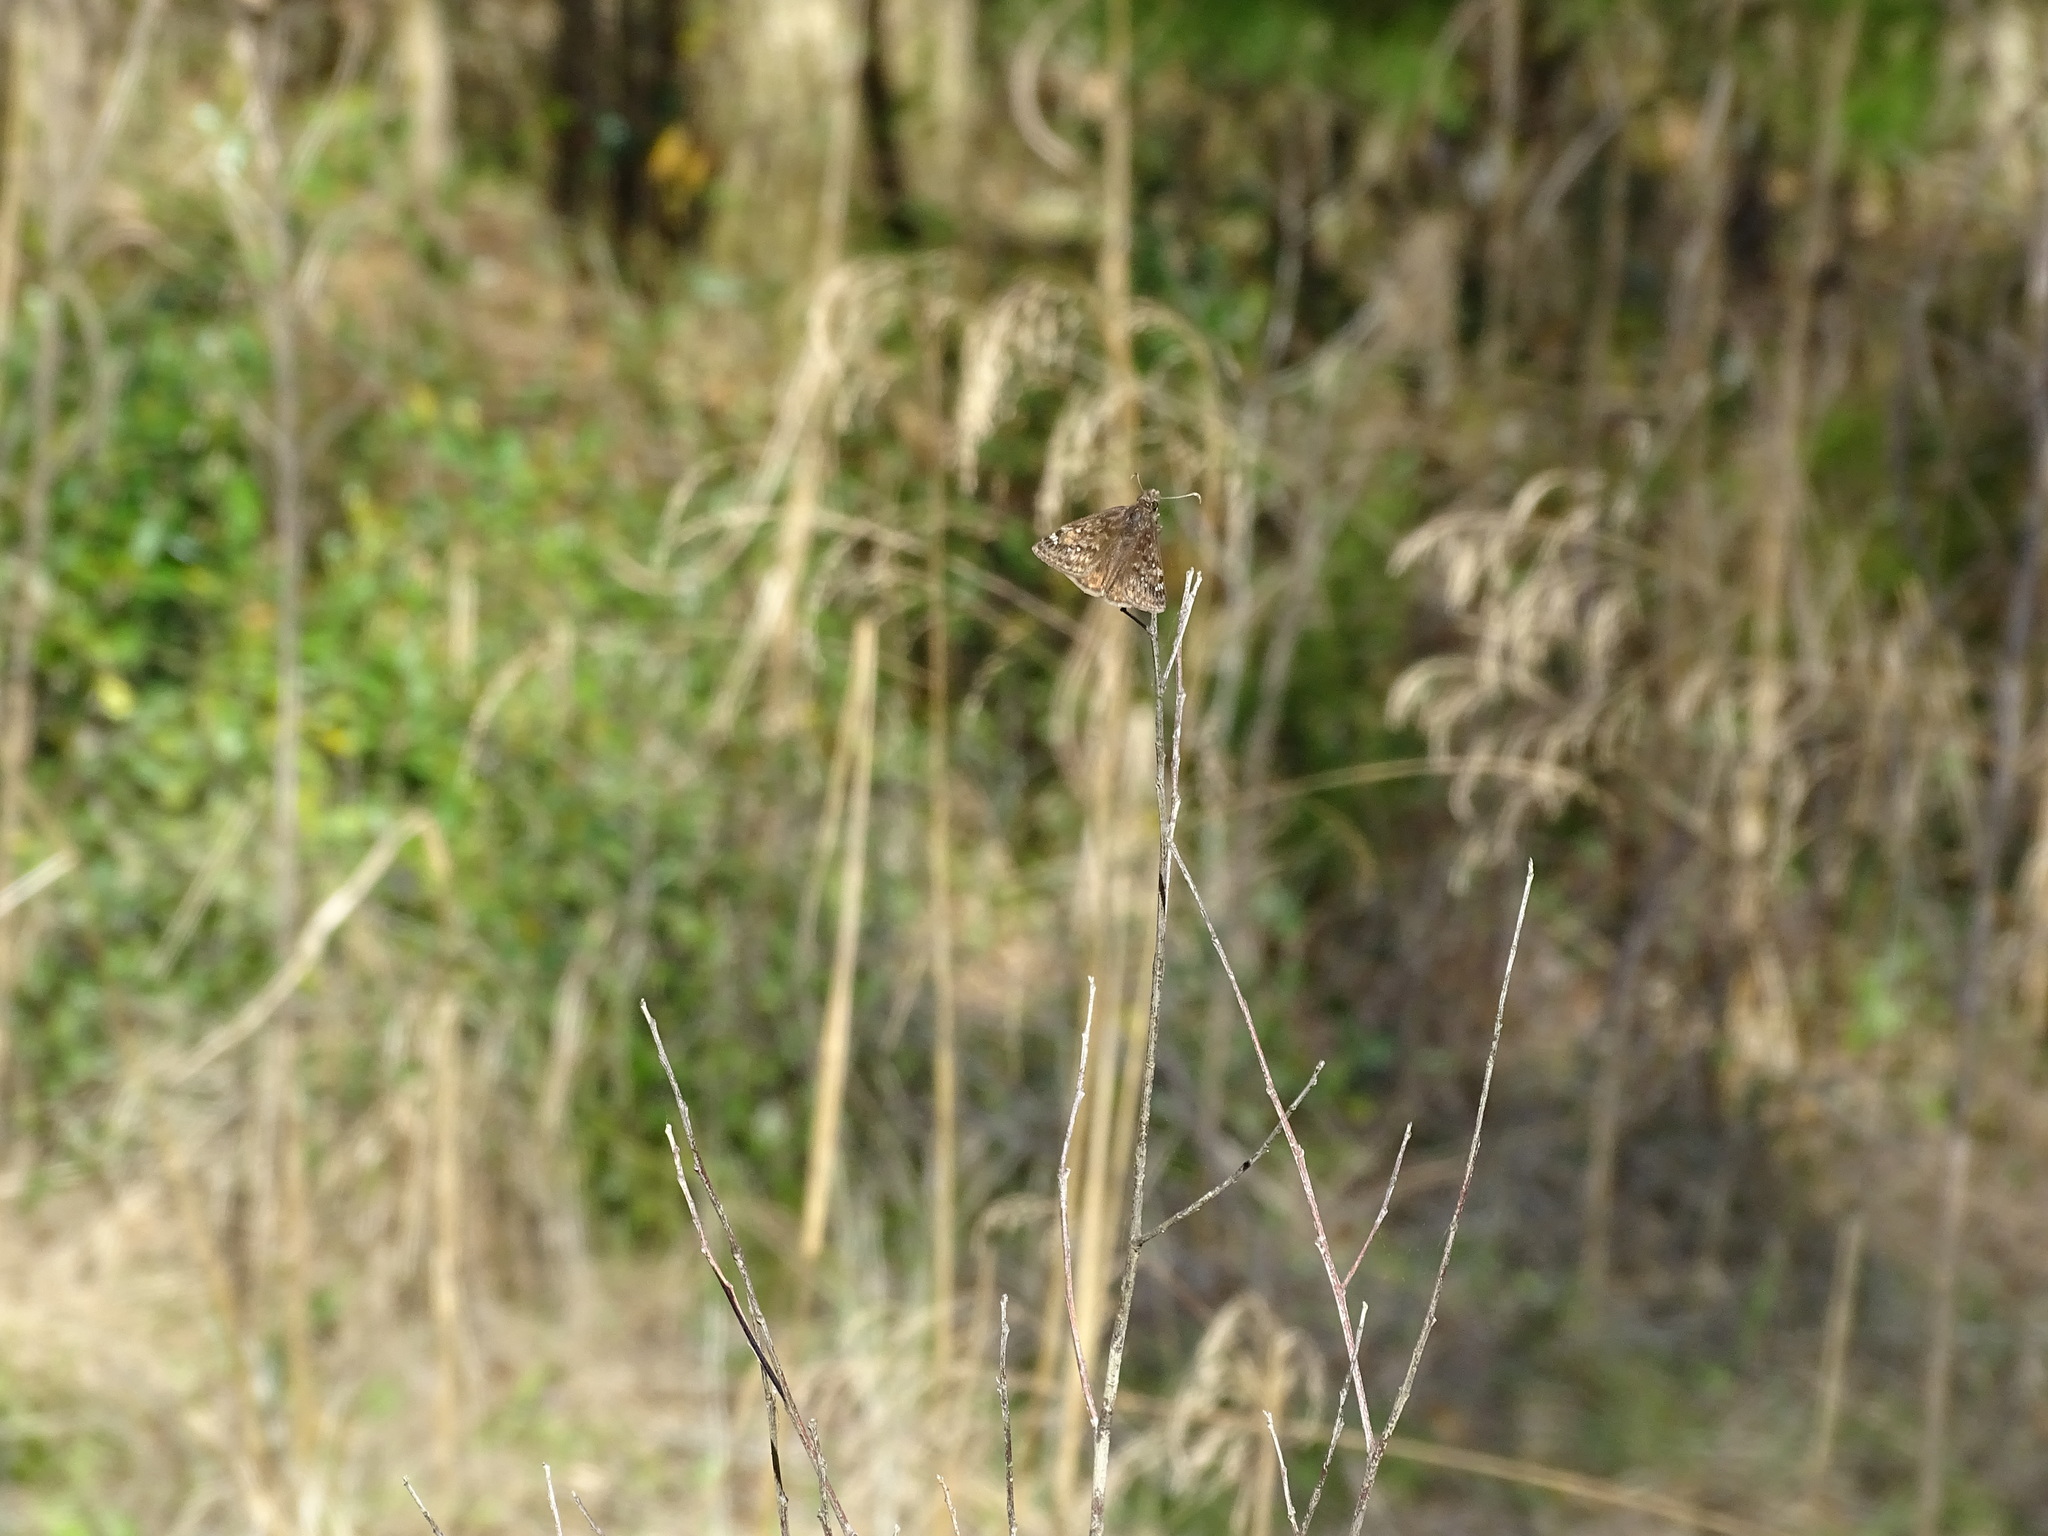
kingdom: Animalia
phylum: Arthropoda
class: Insecta
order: Lepidoptera
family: Hesperiidae
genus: Erynnis
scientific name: Erynnis juvenalis
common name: Juvenal's duskywing
